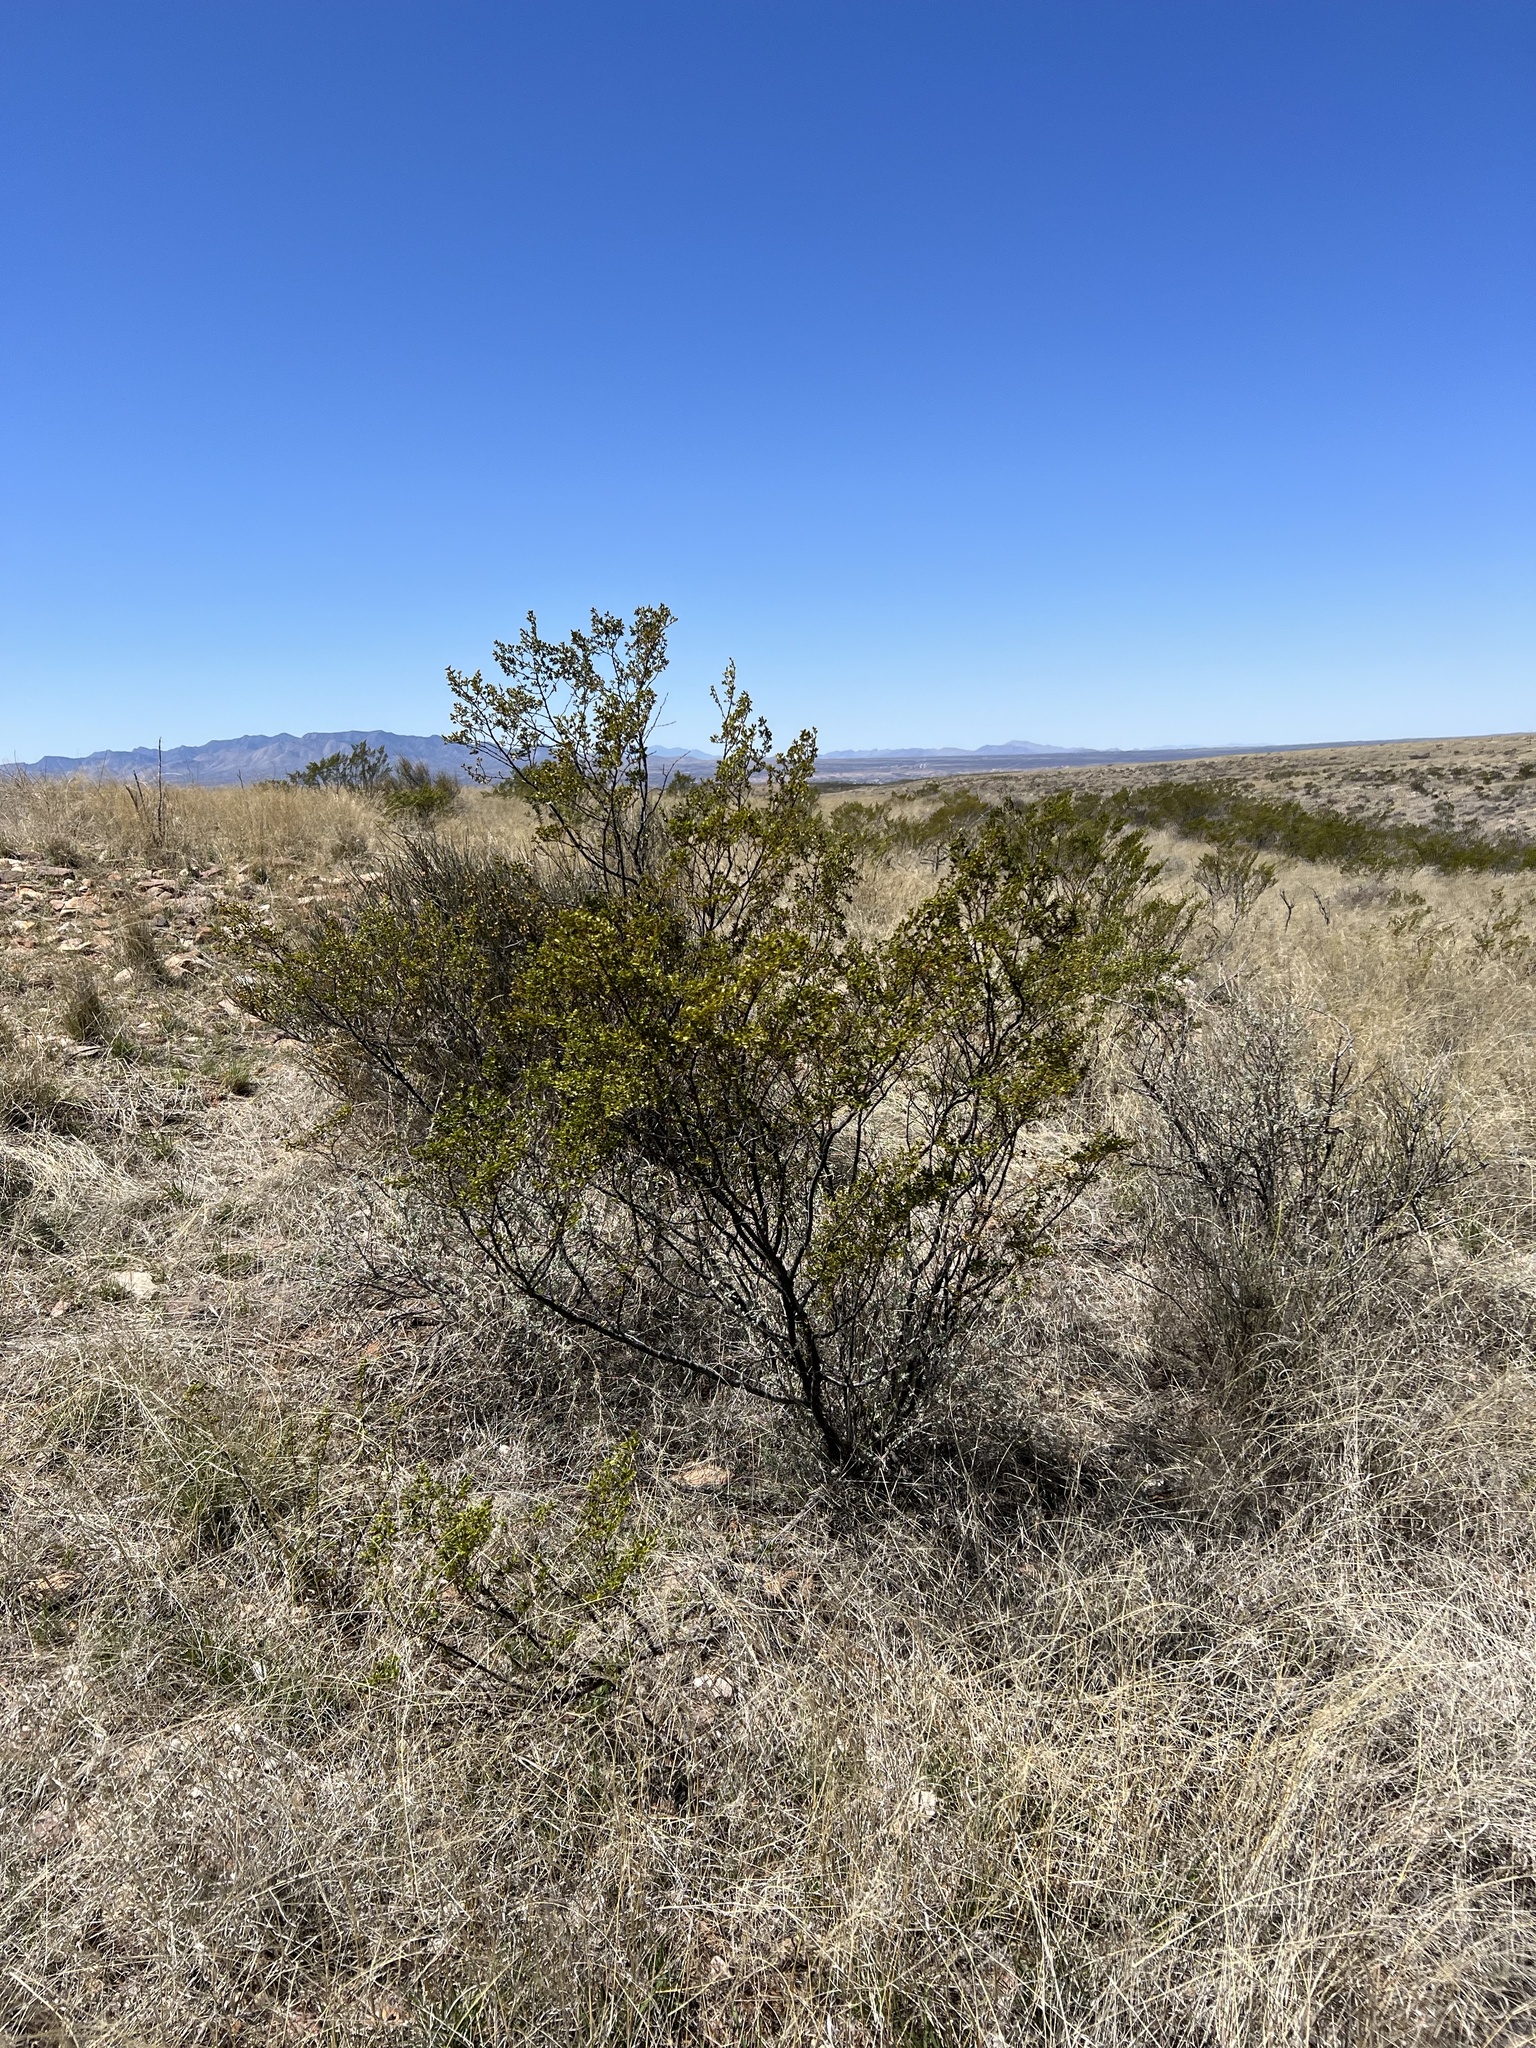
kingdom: Plantae
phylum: Tracheophyta
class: Magnoliopsida
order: Zygophyllales
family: Zygophyllaceae
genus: Larrea
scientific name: Larrea tridentata
